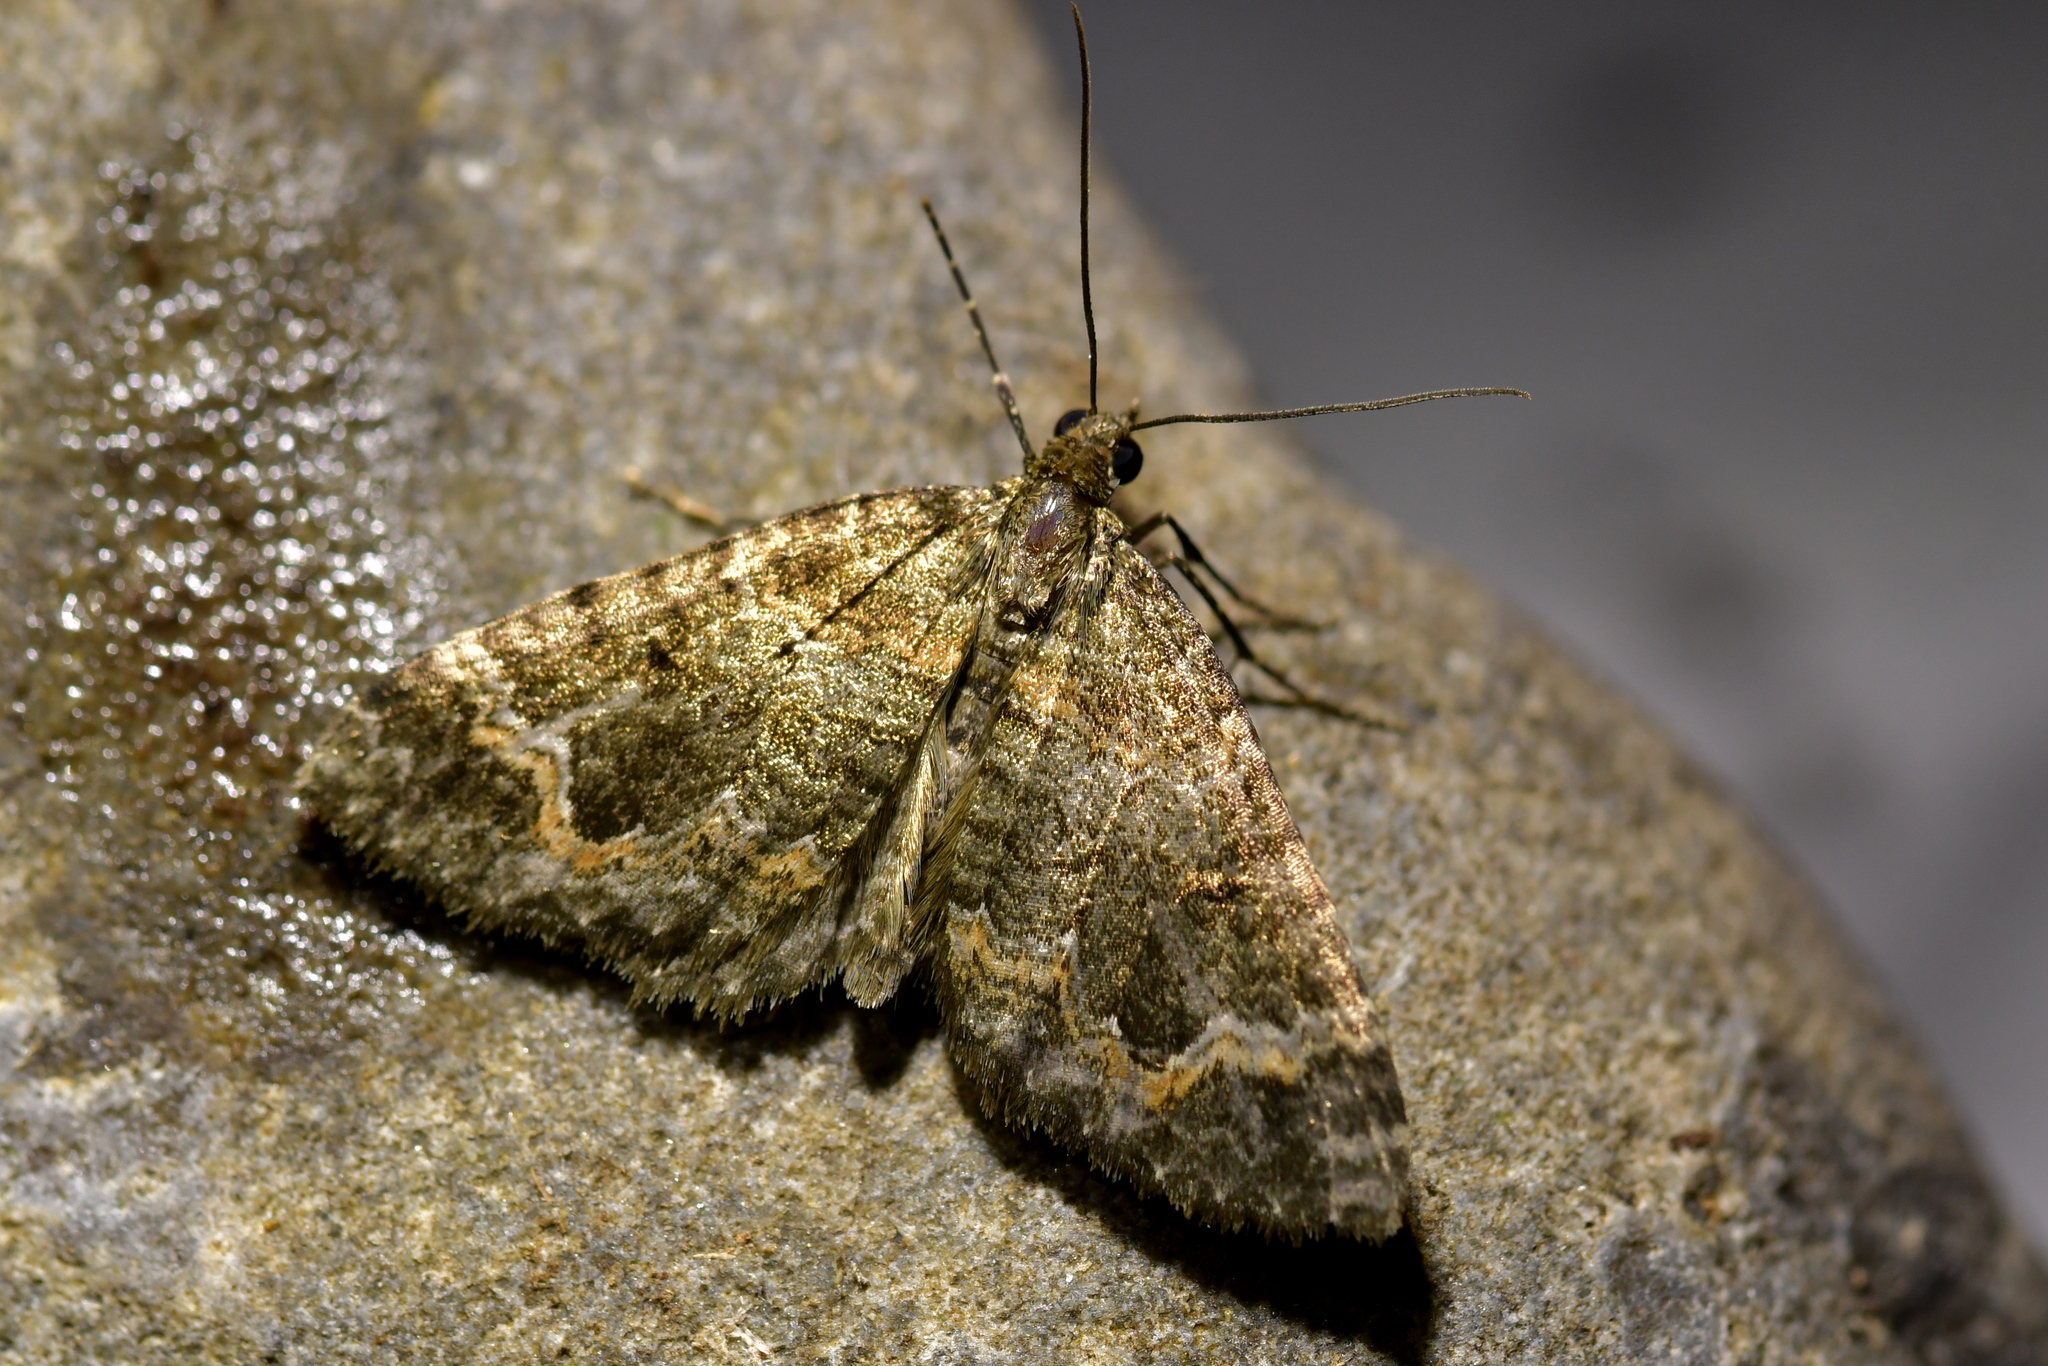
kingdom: Animalia
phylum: Arthropoda
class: Insecta
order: Lepidoptera
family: Geometridae
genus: Hydriomena
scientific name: Hydriomena hemizona
